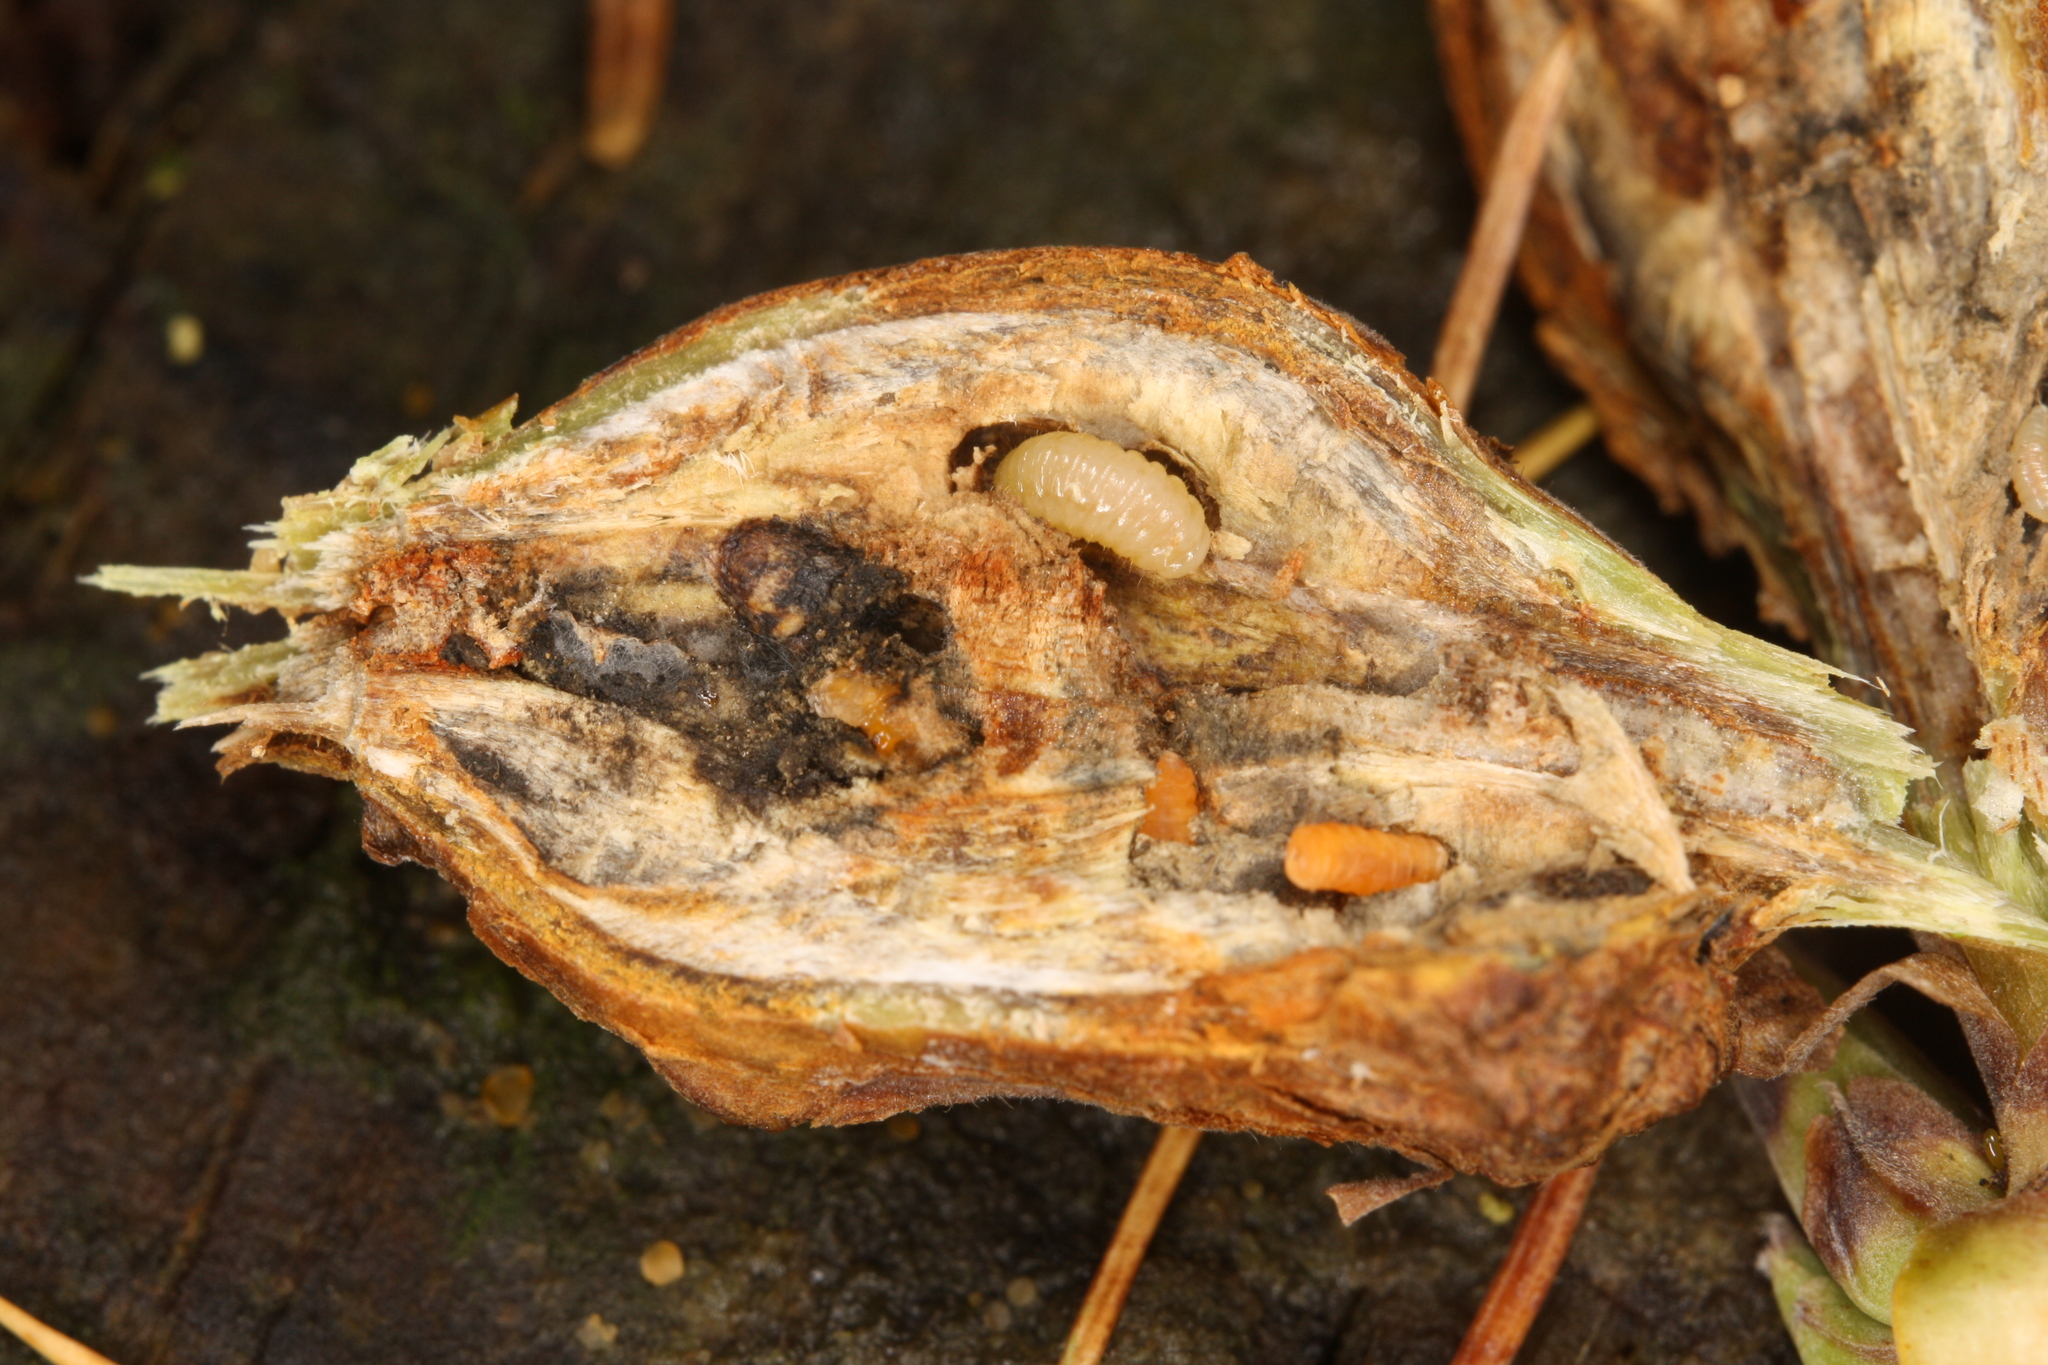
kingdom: Animalia
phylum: Arthropoda
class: Insecta
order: Diptera
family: Cecidomyiidae
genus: Lasioptera
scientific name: Lasioptera rubi
